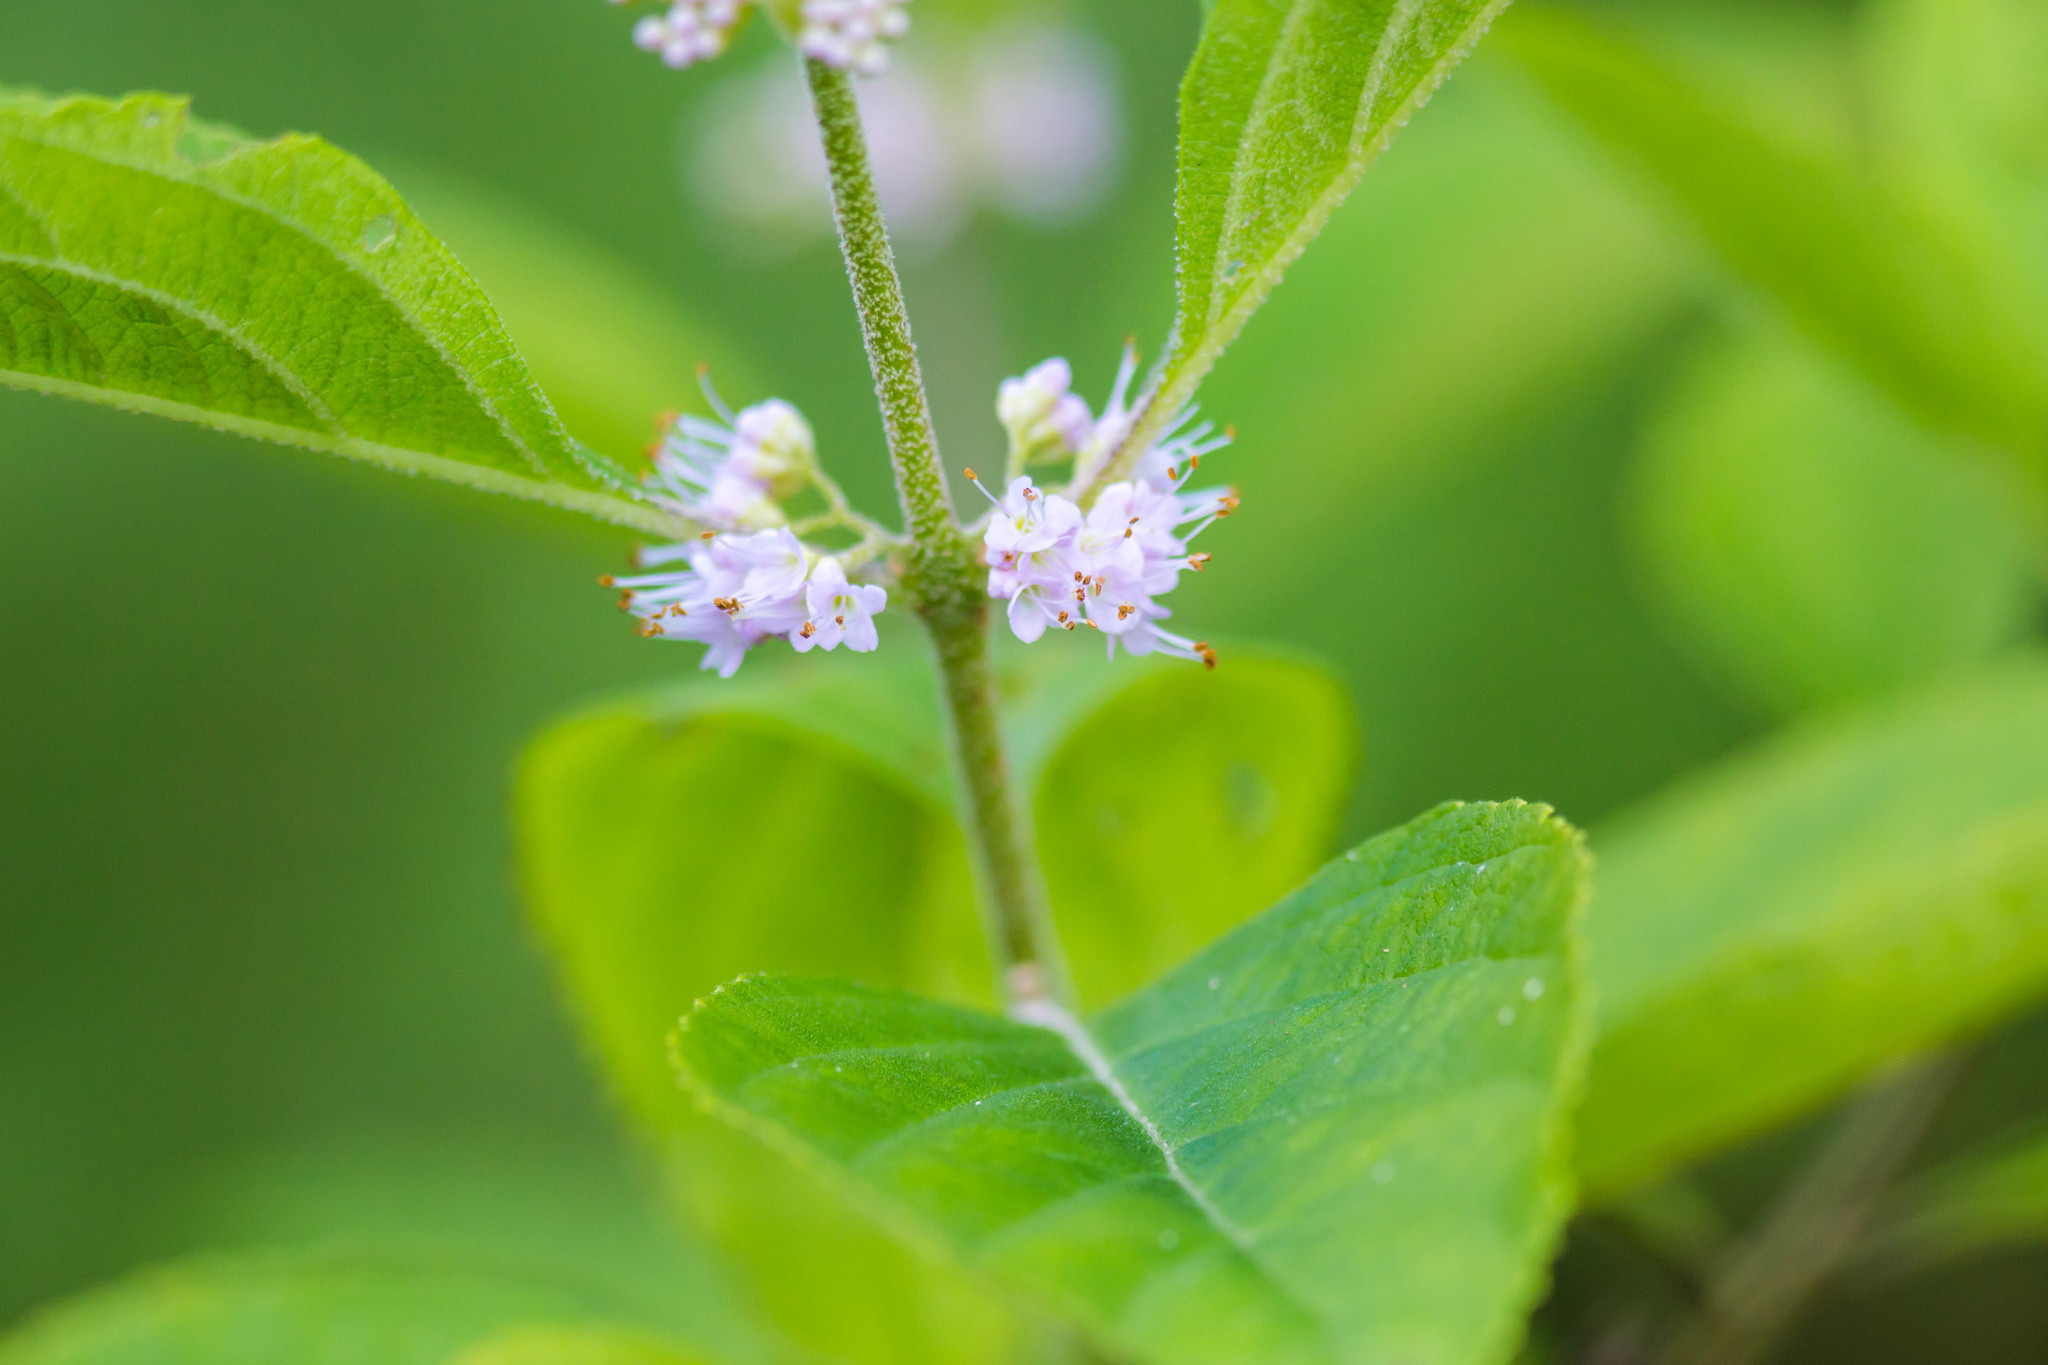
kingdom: Plantae
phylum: Tracheophyta
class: Magnoliopsida
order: Lamiales
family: Lamiaceae
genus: Callicarpa
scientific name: Callicarpa americana
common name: American beautyberry
